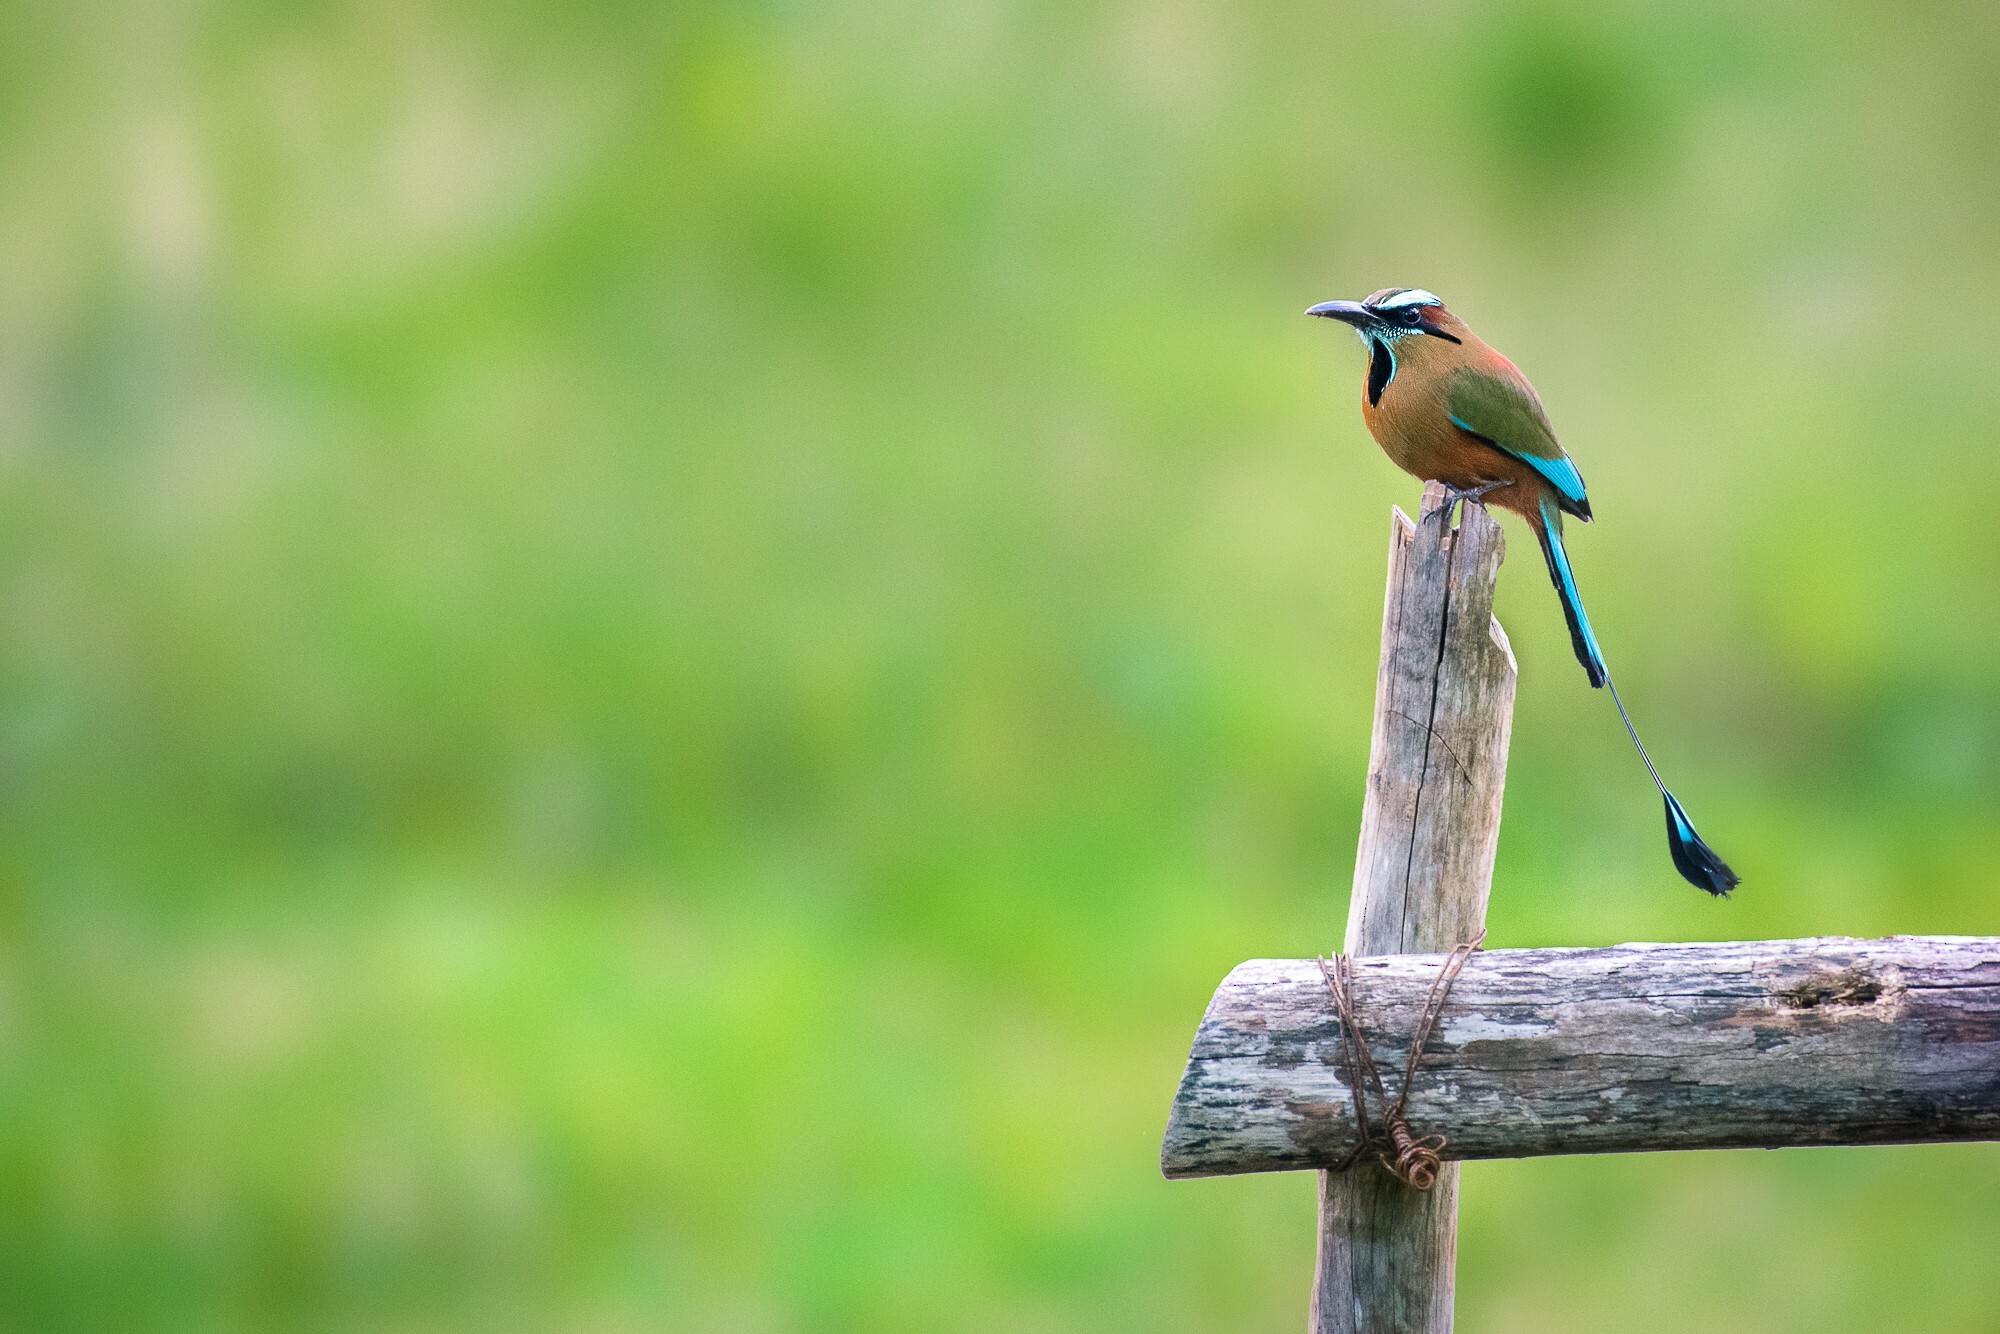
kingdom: Animalia
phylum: Chordata
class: Aves
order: Coraciiformes
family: Momotidae
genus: Eumomota
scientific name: Eumomota superciliosa
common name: Turquoise-browed motmot
